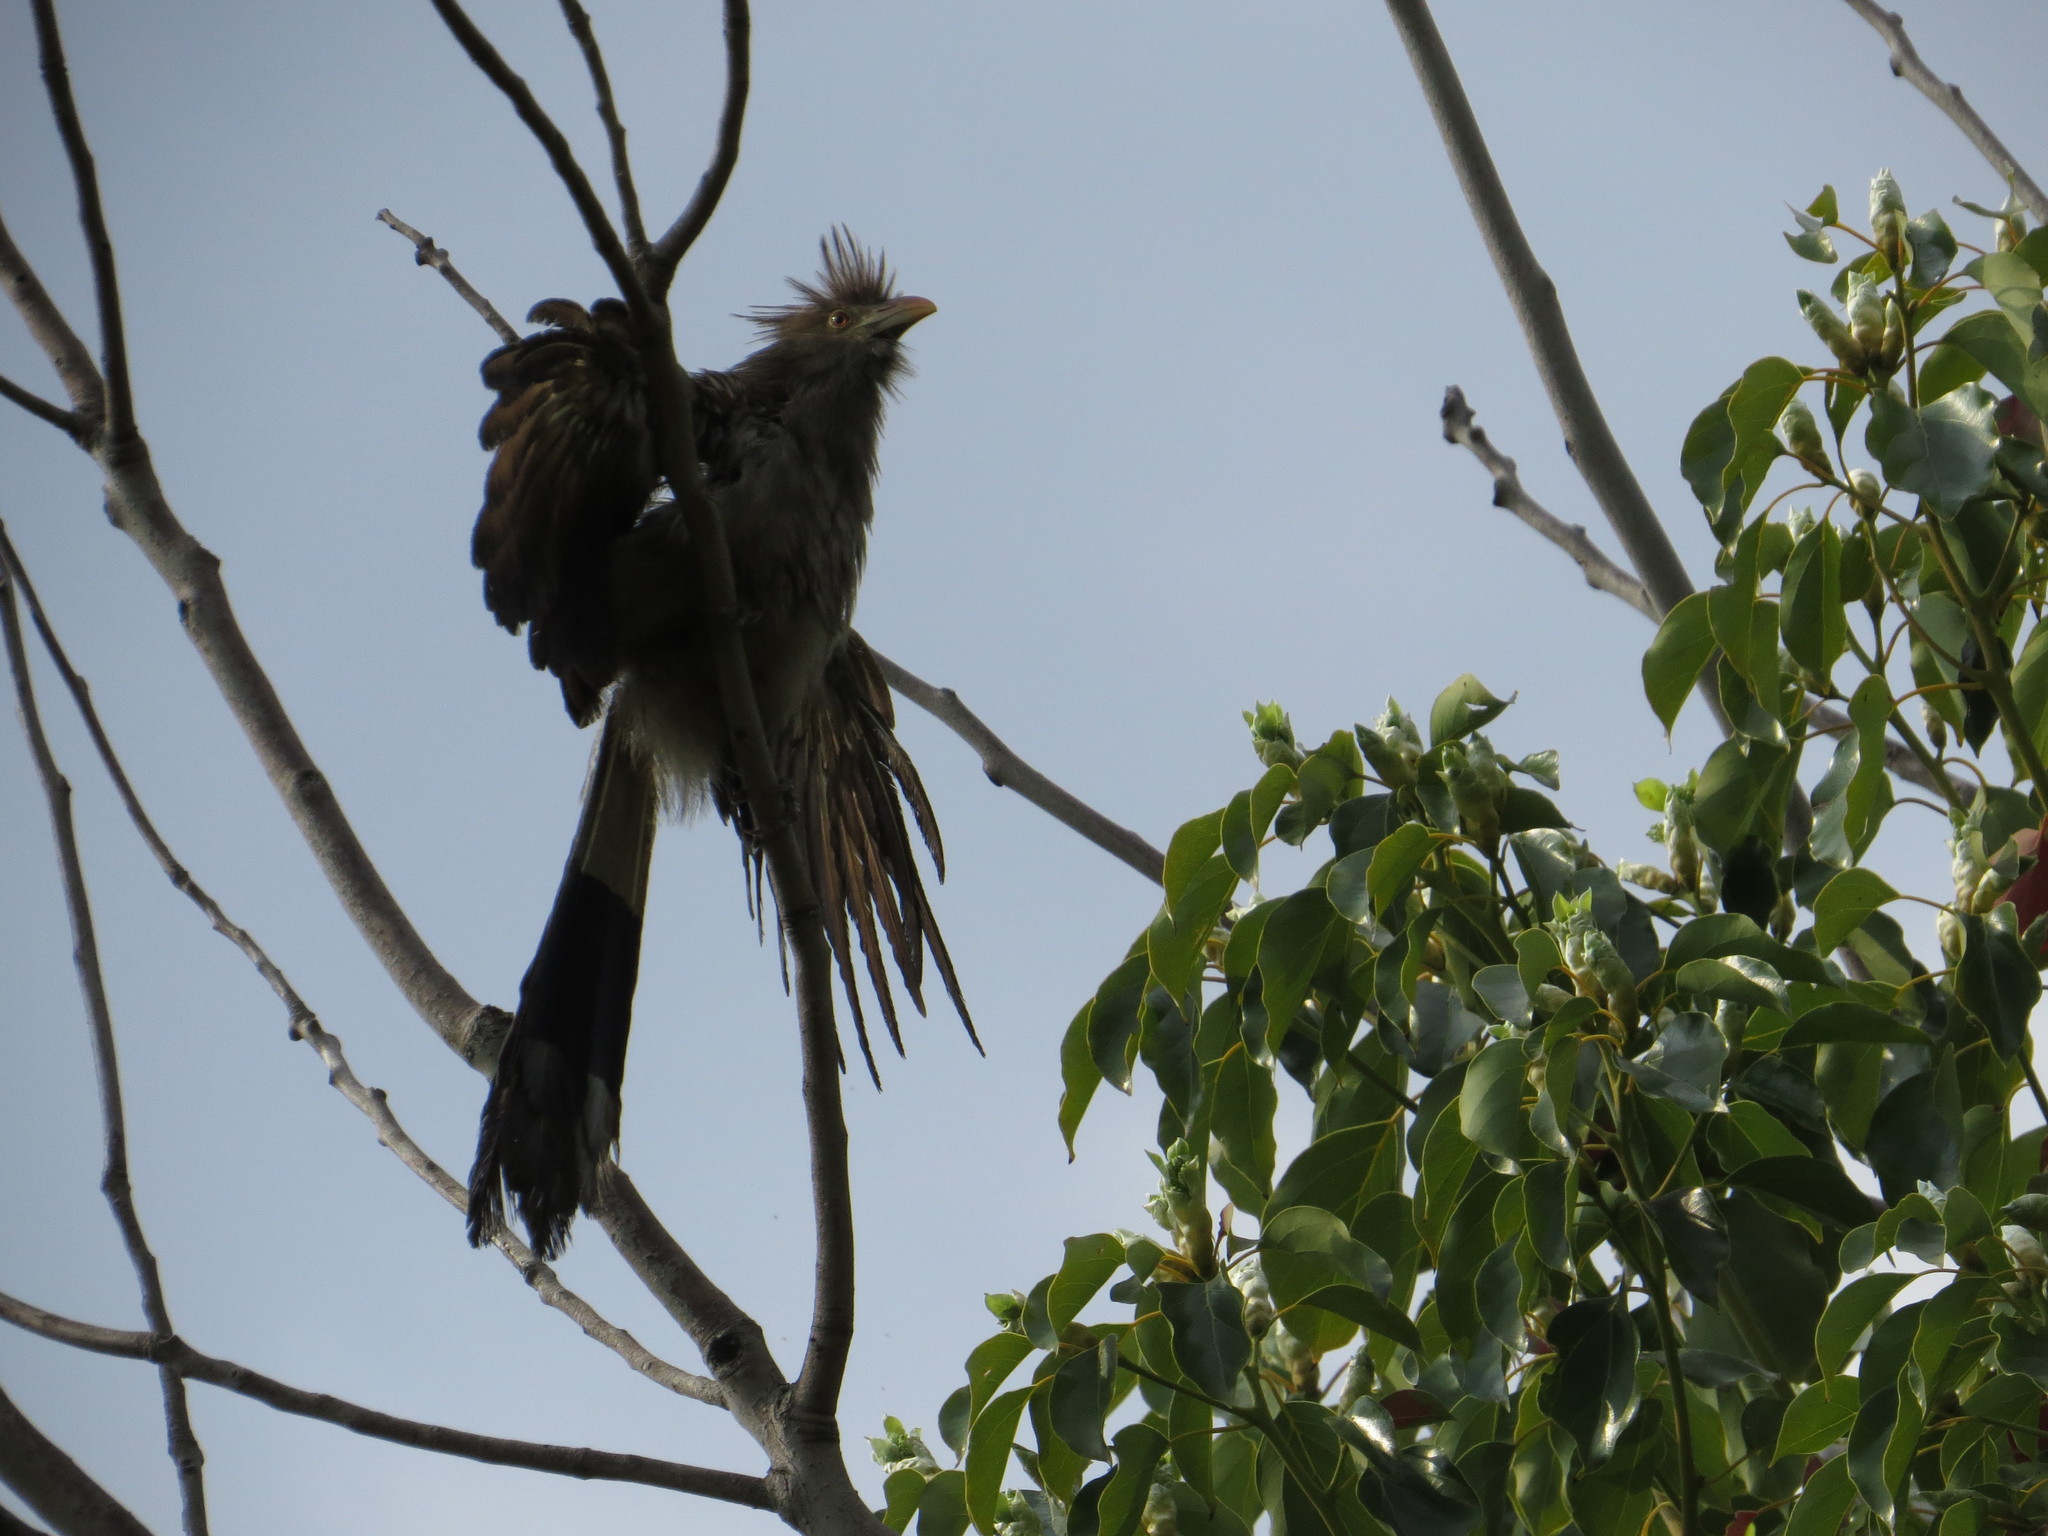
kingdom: Animalia
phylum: Chordata
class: Aves
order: Cuculiformes
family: Cuculidae
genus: Guira
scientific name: Guira guira
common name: Guira cuckoo
